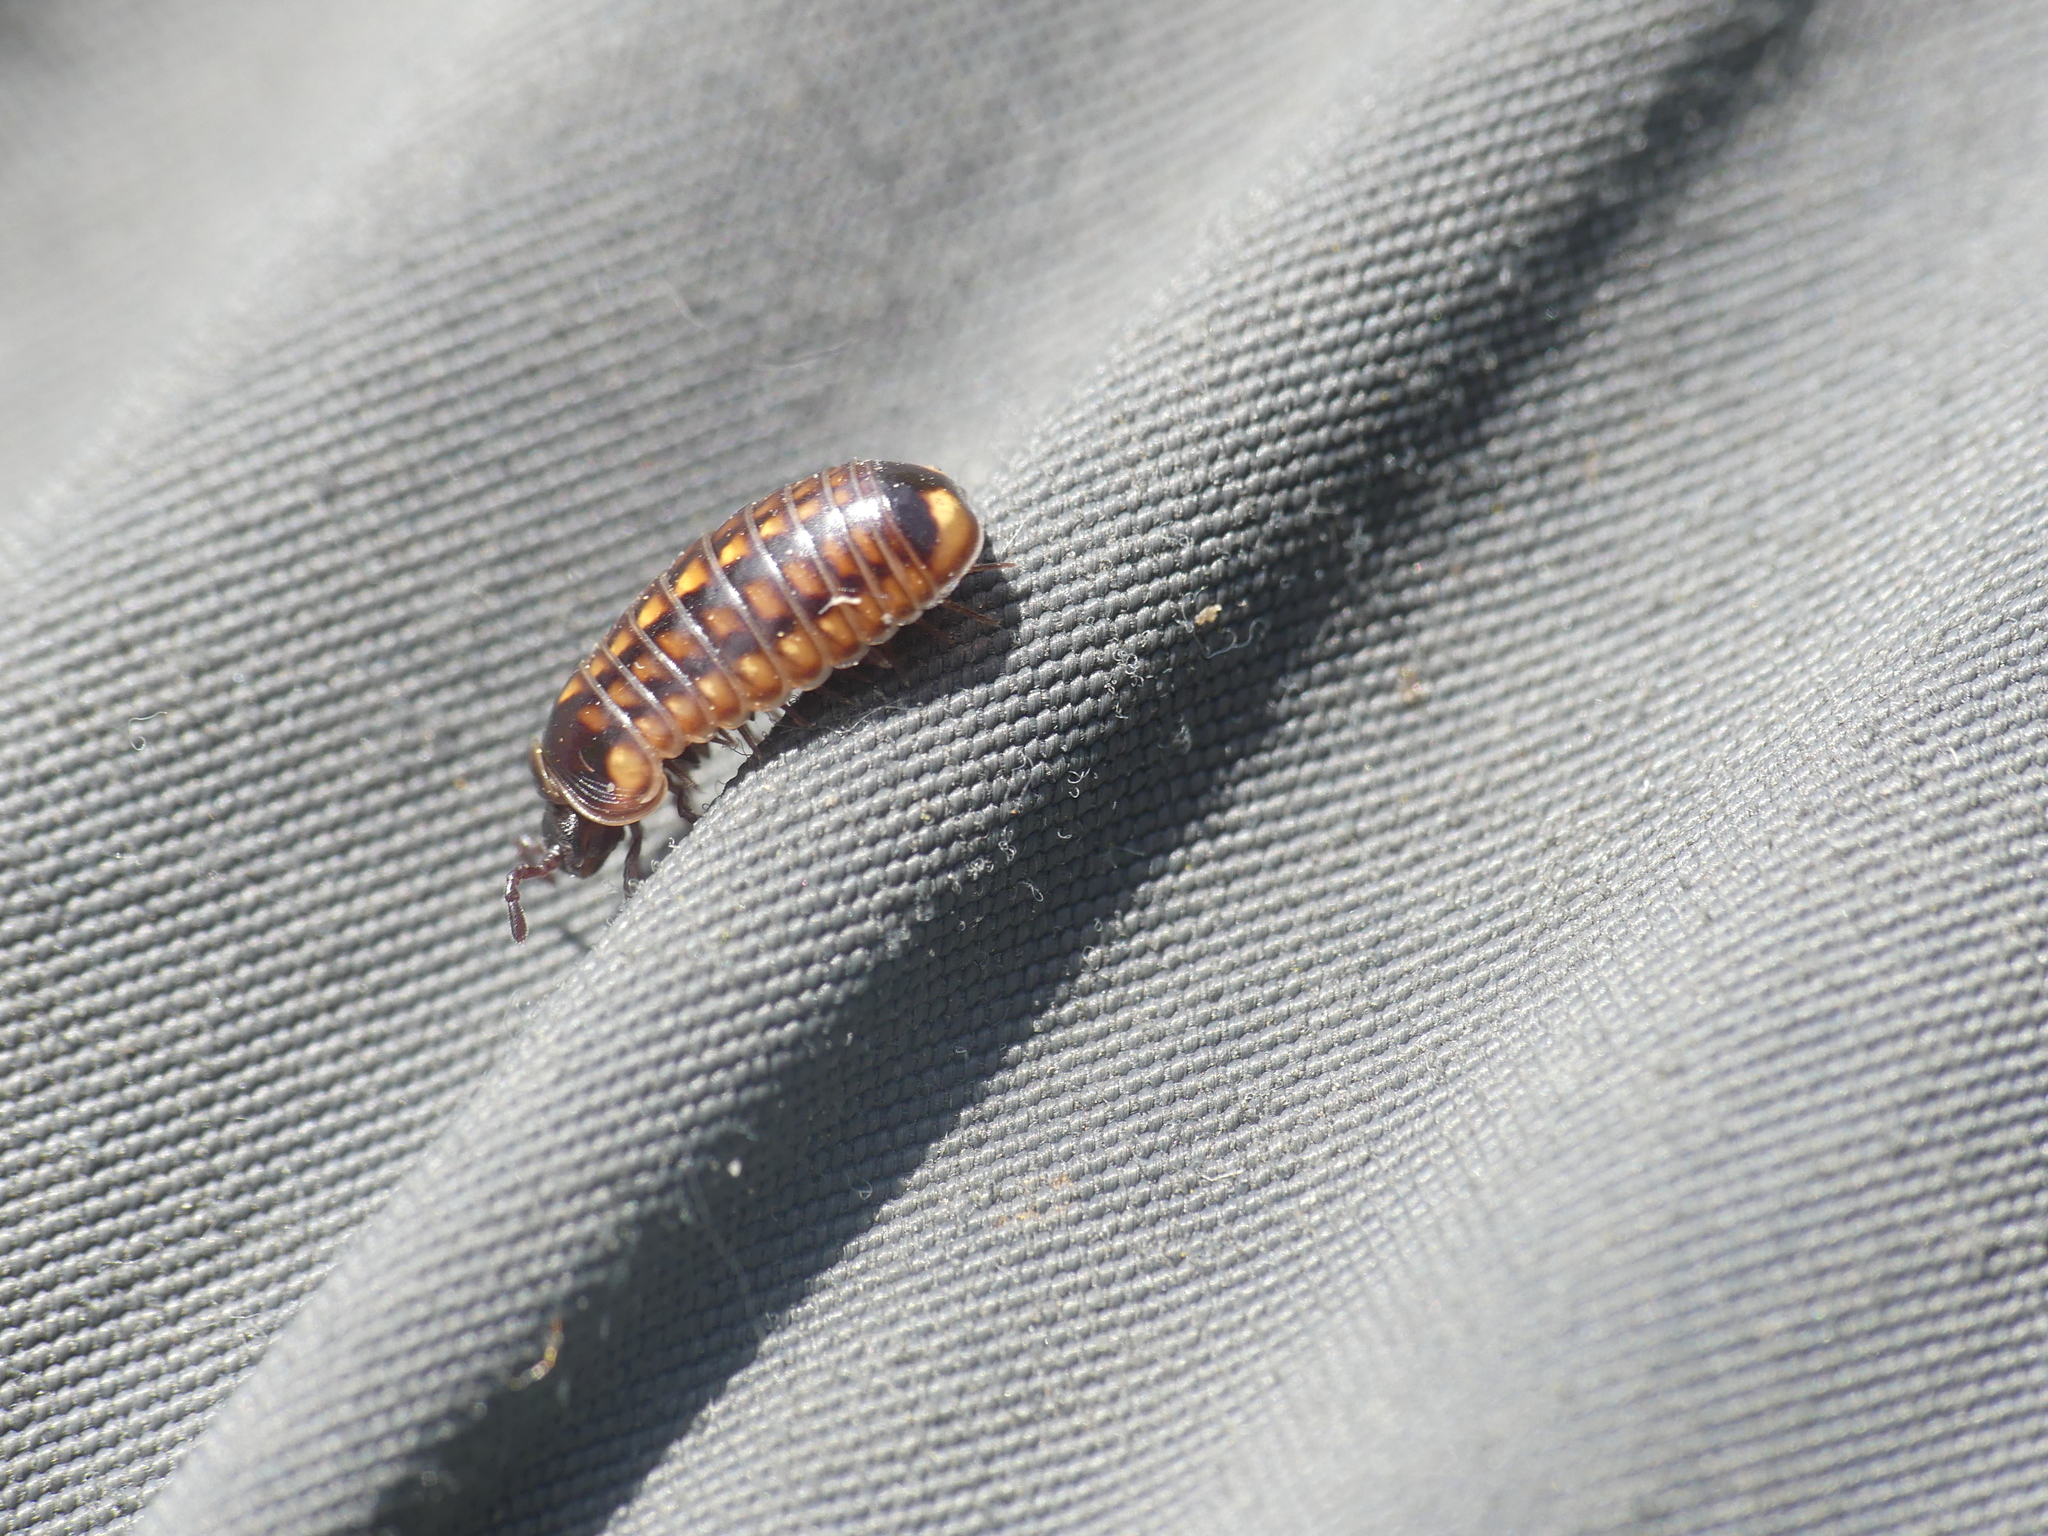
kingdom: Animalia
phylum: Arthropoda
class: Diplopoda
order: Glomerida
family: Glomeridae
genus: Glomeris
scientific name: Glomeris hexasticha
